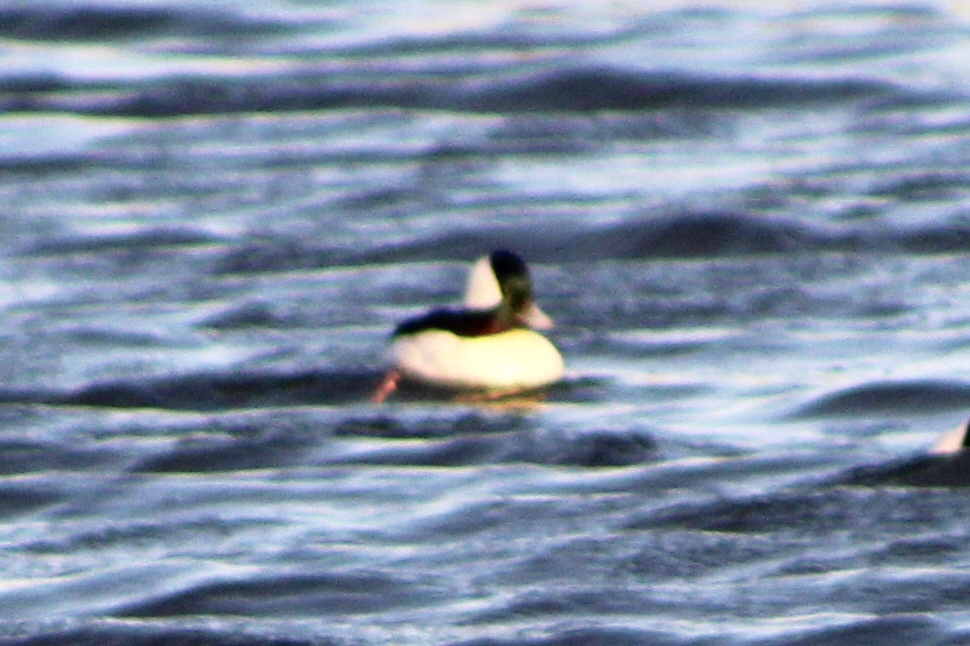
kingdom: Animalia
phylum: Chordata
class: Aves
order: Anseriformes
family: Anatidae
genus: Bucephala
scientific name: Bucephala albeola
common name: Bufflehead
